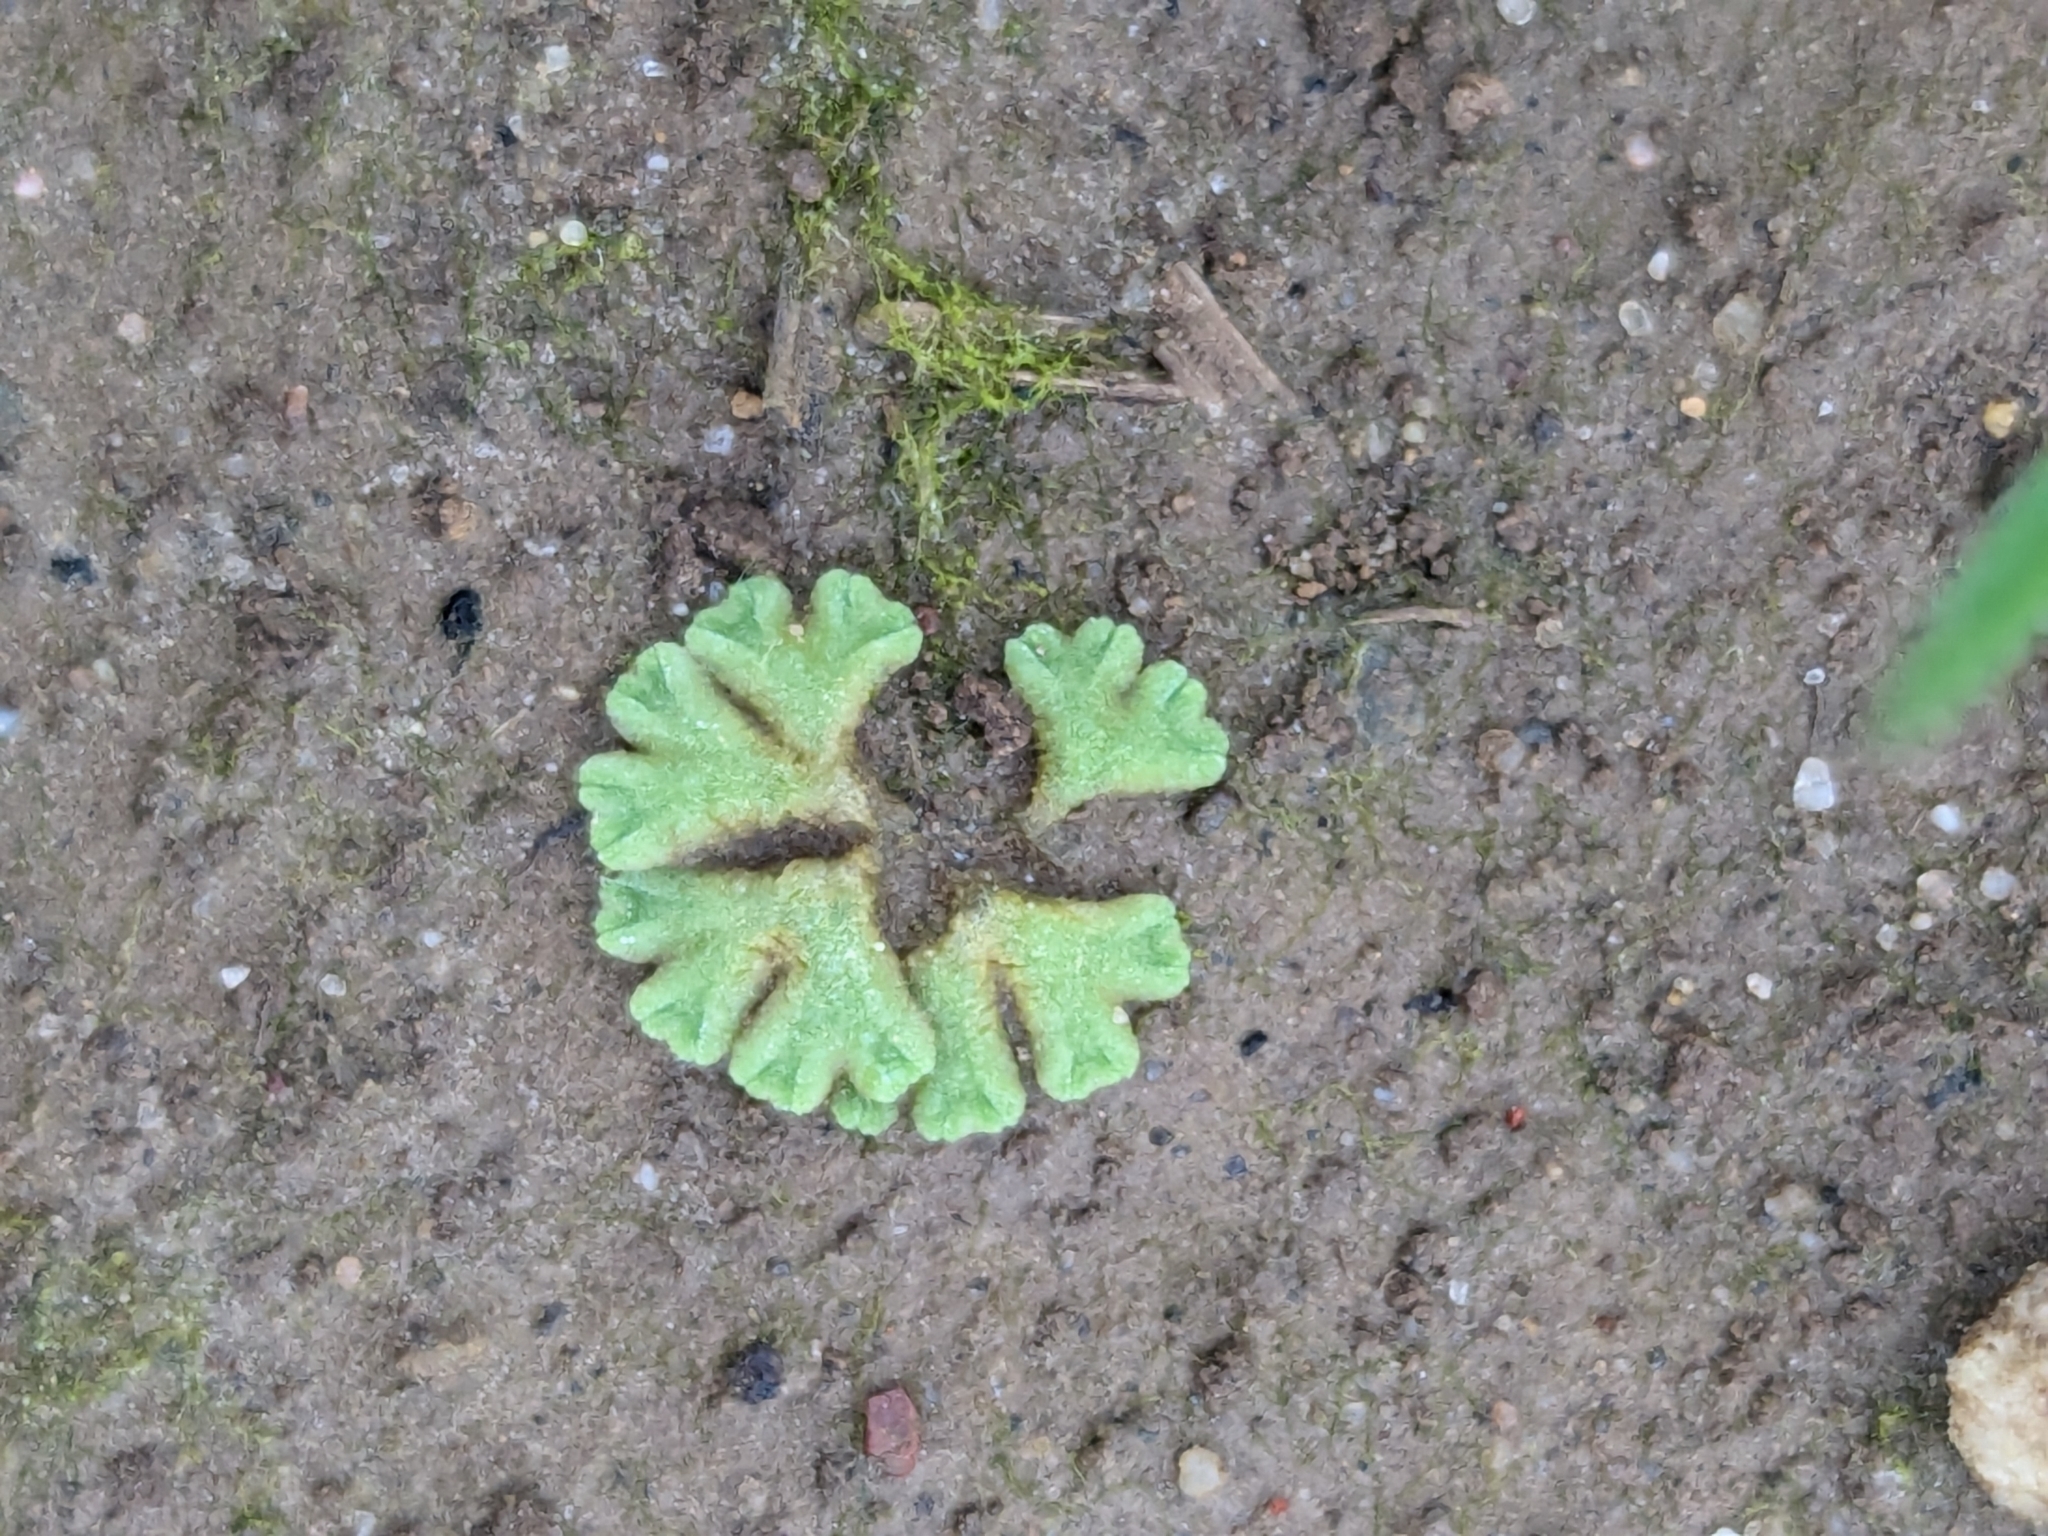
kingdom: Plantae
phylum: Marchantiophyta
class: Marchantiopsida
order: Marchantiales
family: Ricciaceae
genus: Riccia
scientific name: Riccia glauca
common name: Glaucous crystalwort
